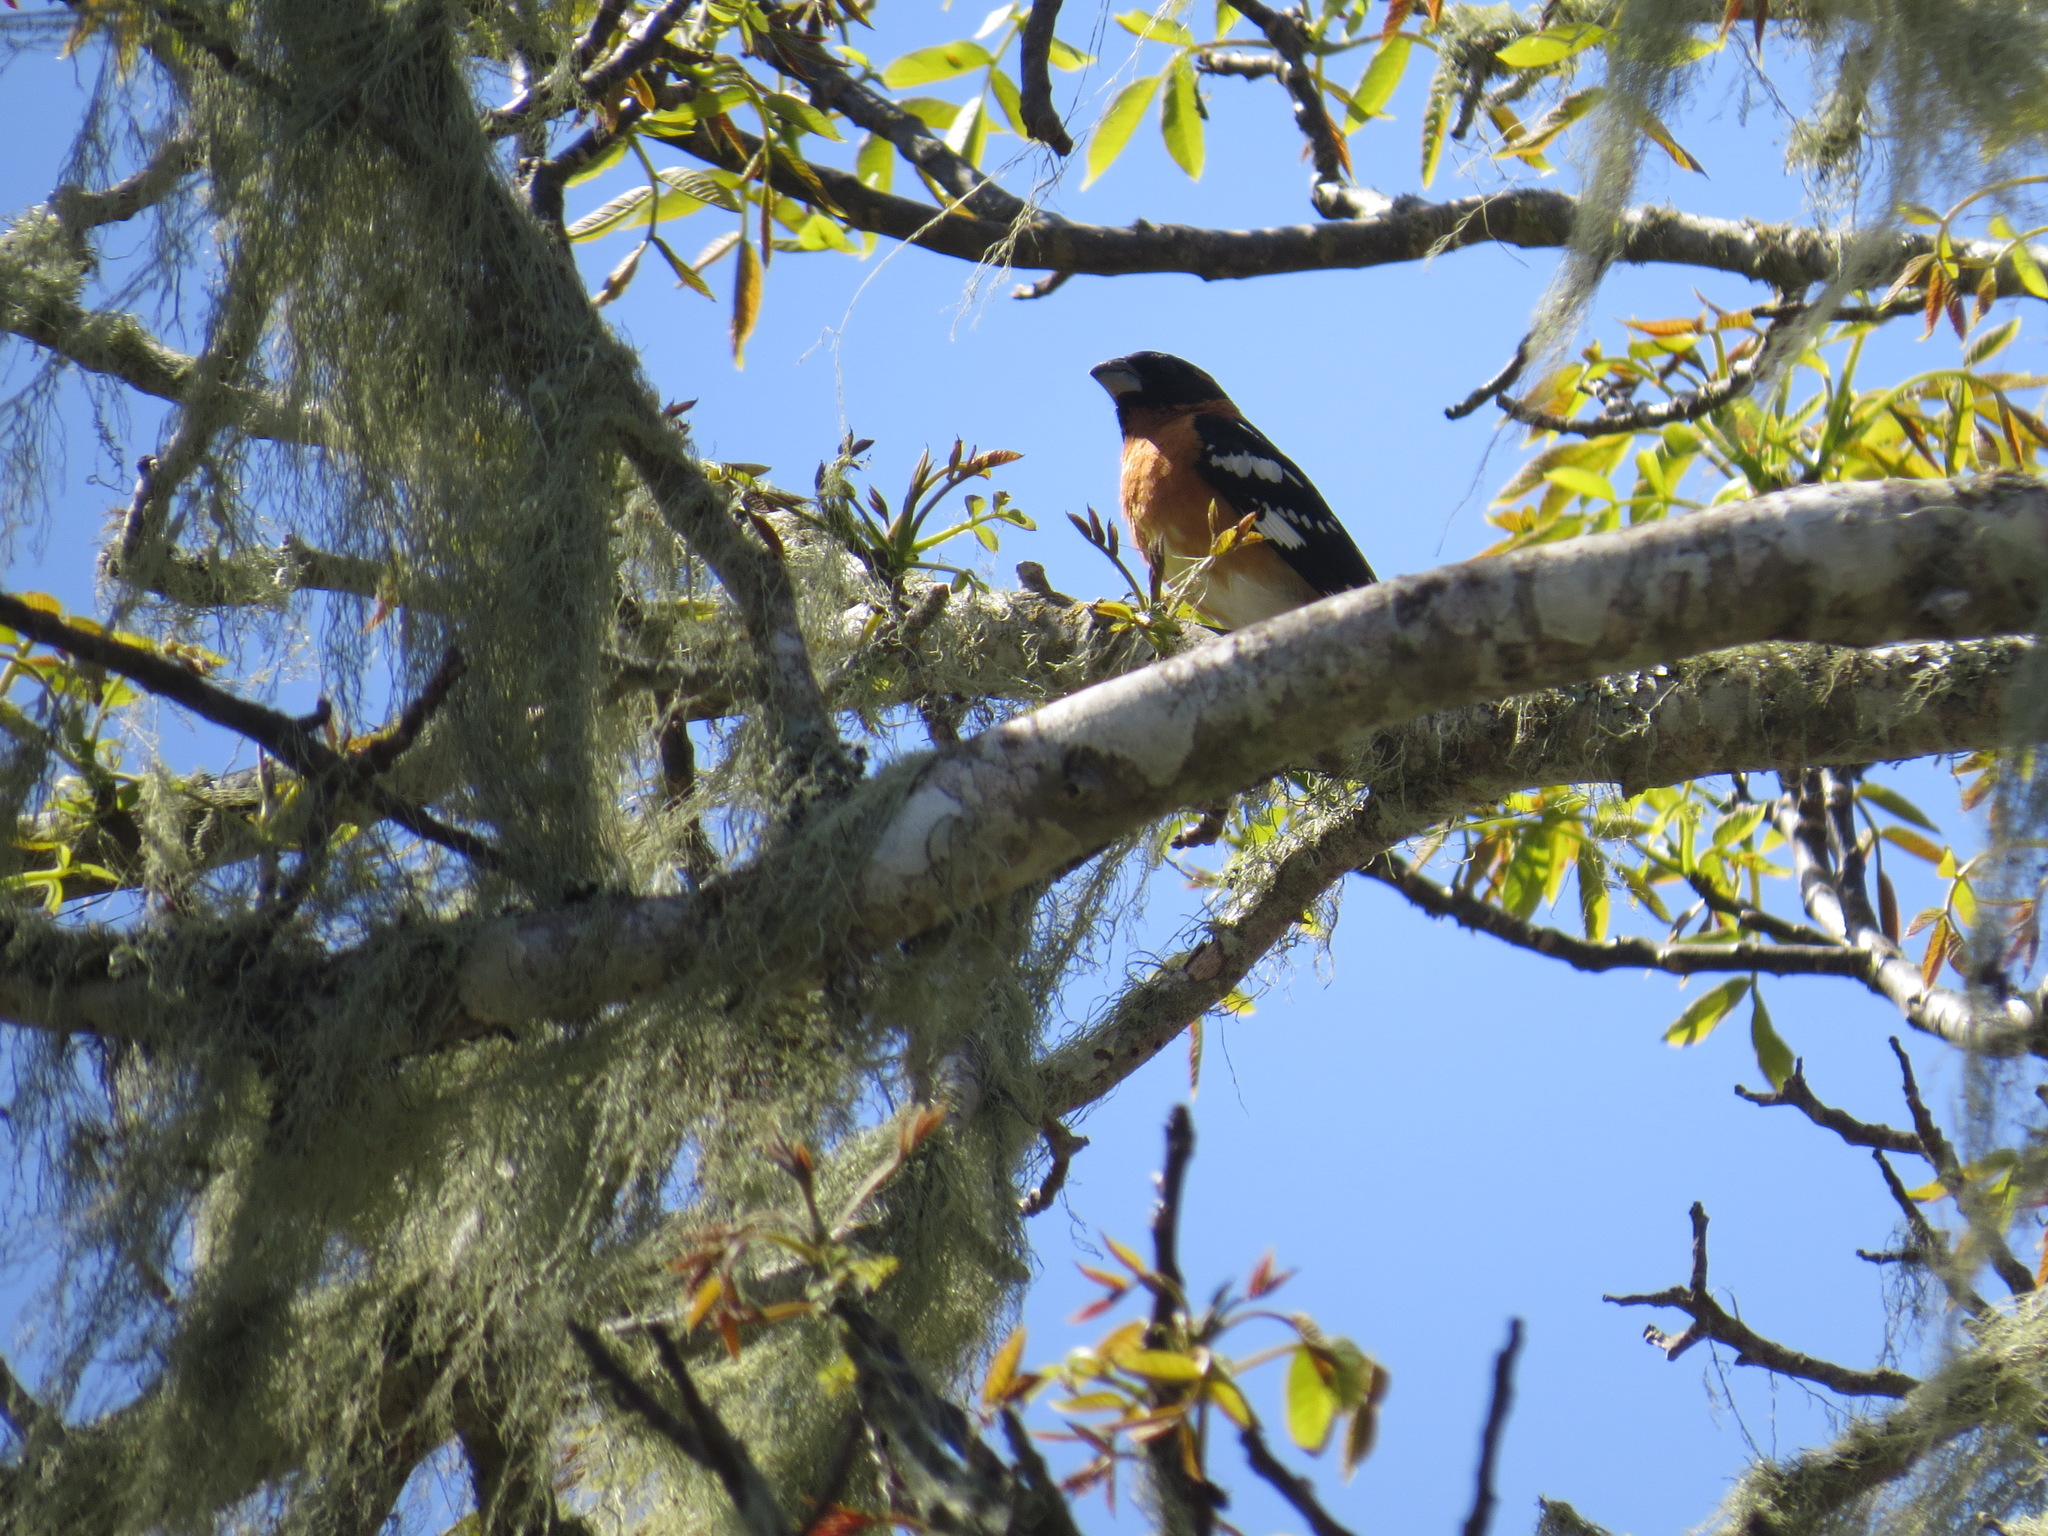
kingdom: Animalia
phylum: Chordata
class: Aves
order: Passeriformes
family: Cardinalidae
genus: Pheucticus
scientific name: Pheucticus melanocephalus
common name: Black-headed grosbeak
